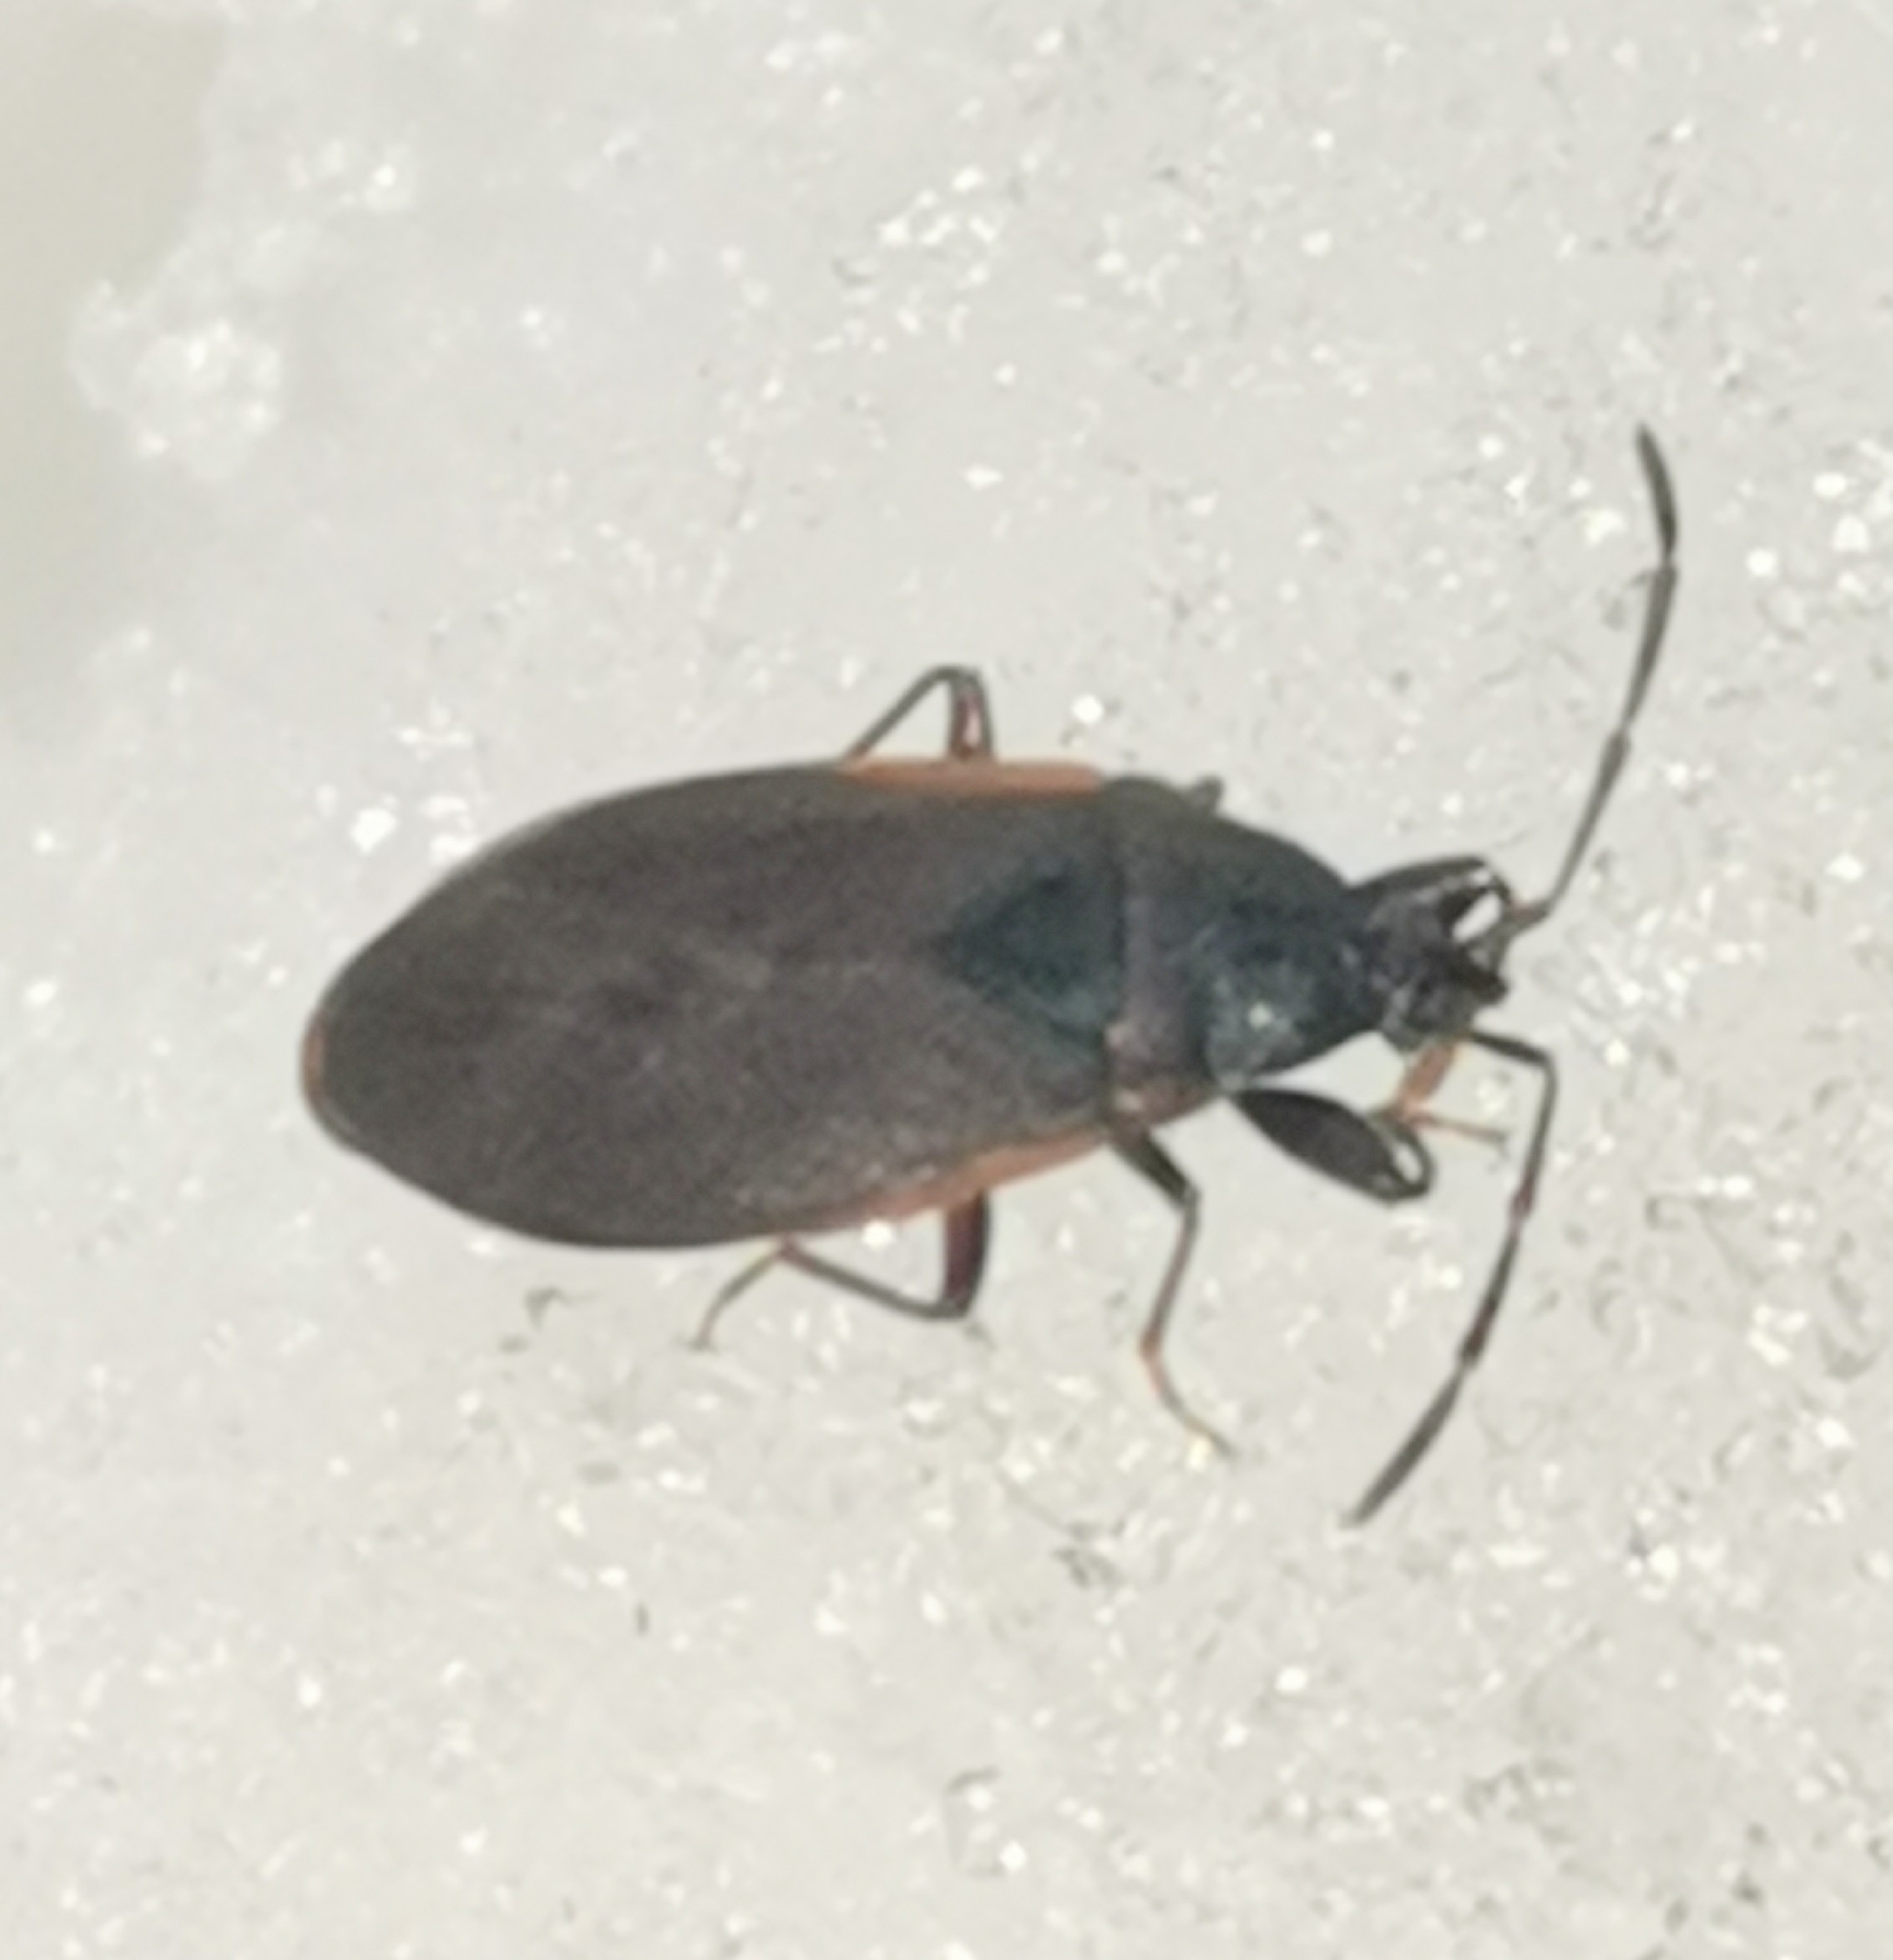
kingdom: Animalia
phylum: Arthropoda
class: Insecta
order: Hemiptera
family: Rhyparochromidae
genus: Gastrodes
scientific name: Gastrodes grossipes
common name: Pine cone bug
